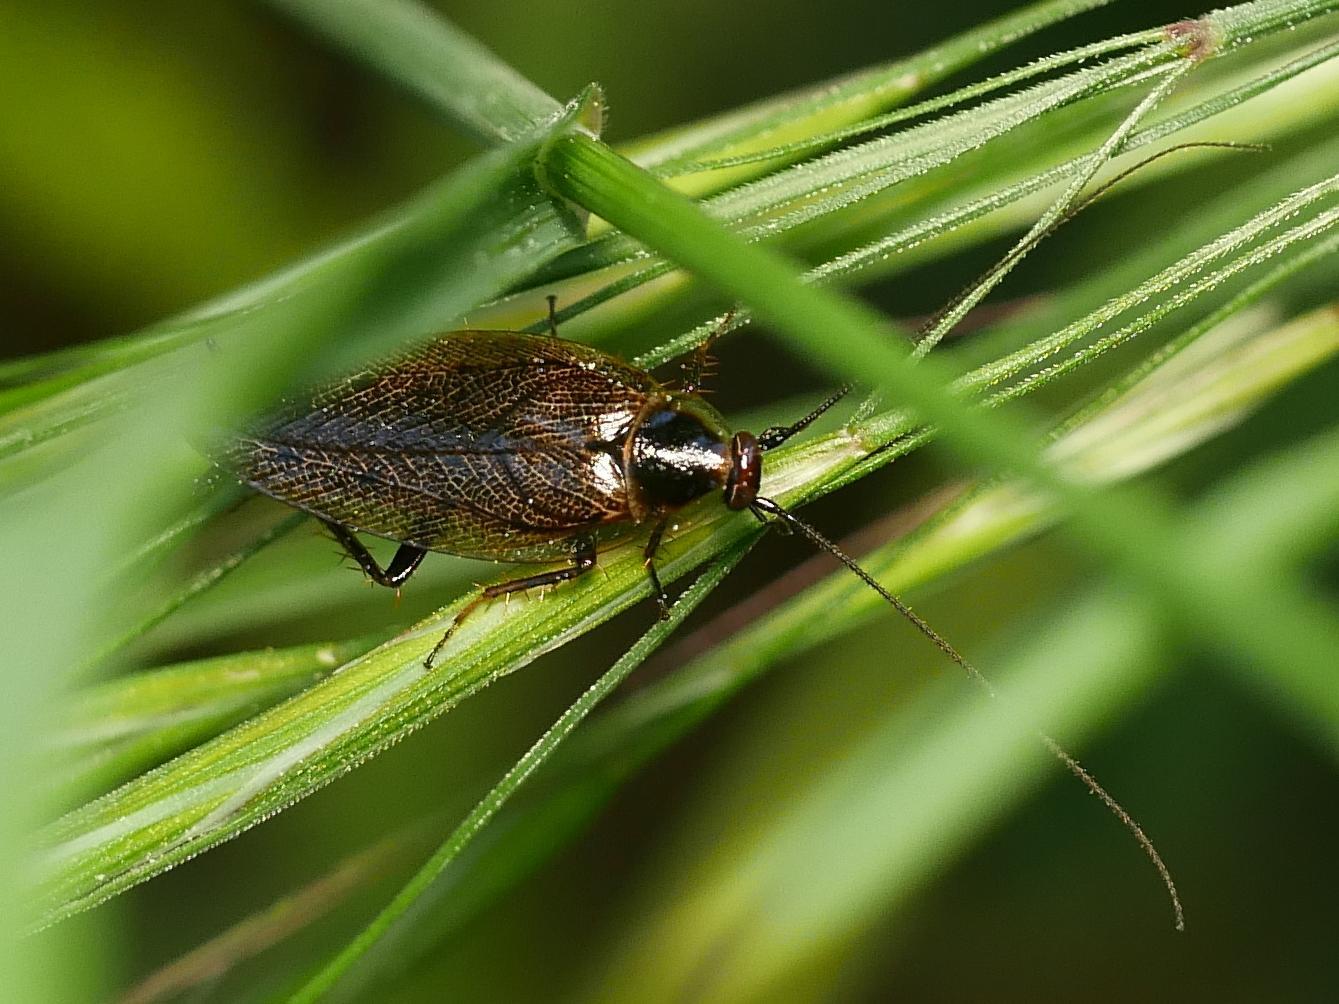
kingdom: Animalia
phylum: Arthropoda
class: Insecta
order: Blattodea
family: Ectobiidae
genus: Ectobius
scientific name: Ectobius lapponicus
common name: Dusky cockroach
